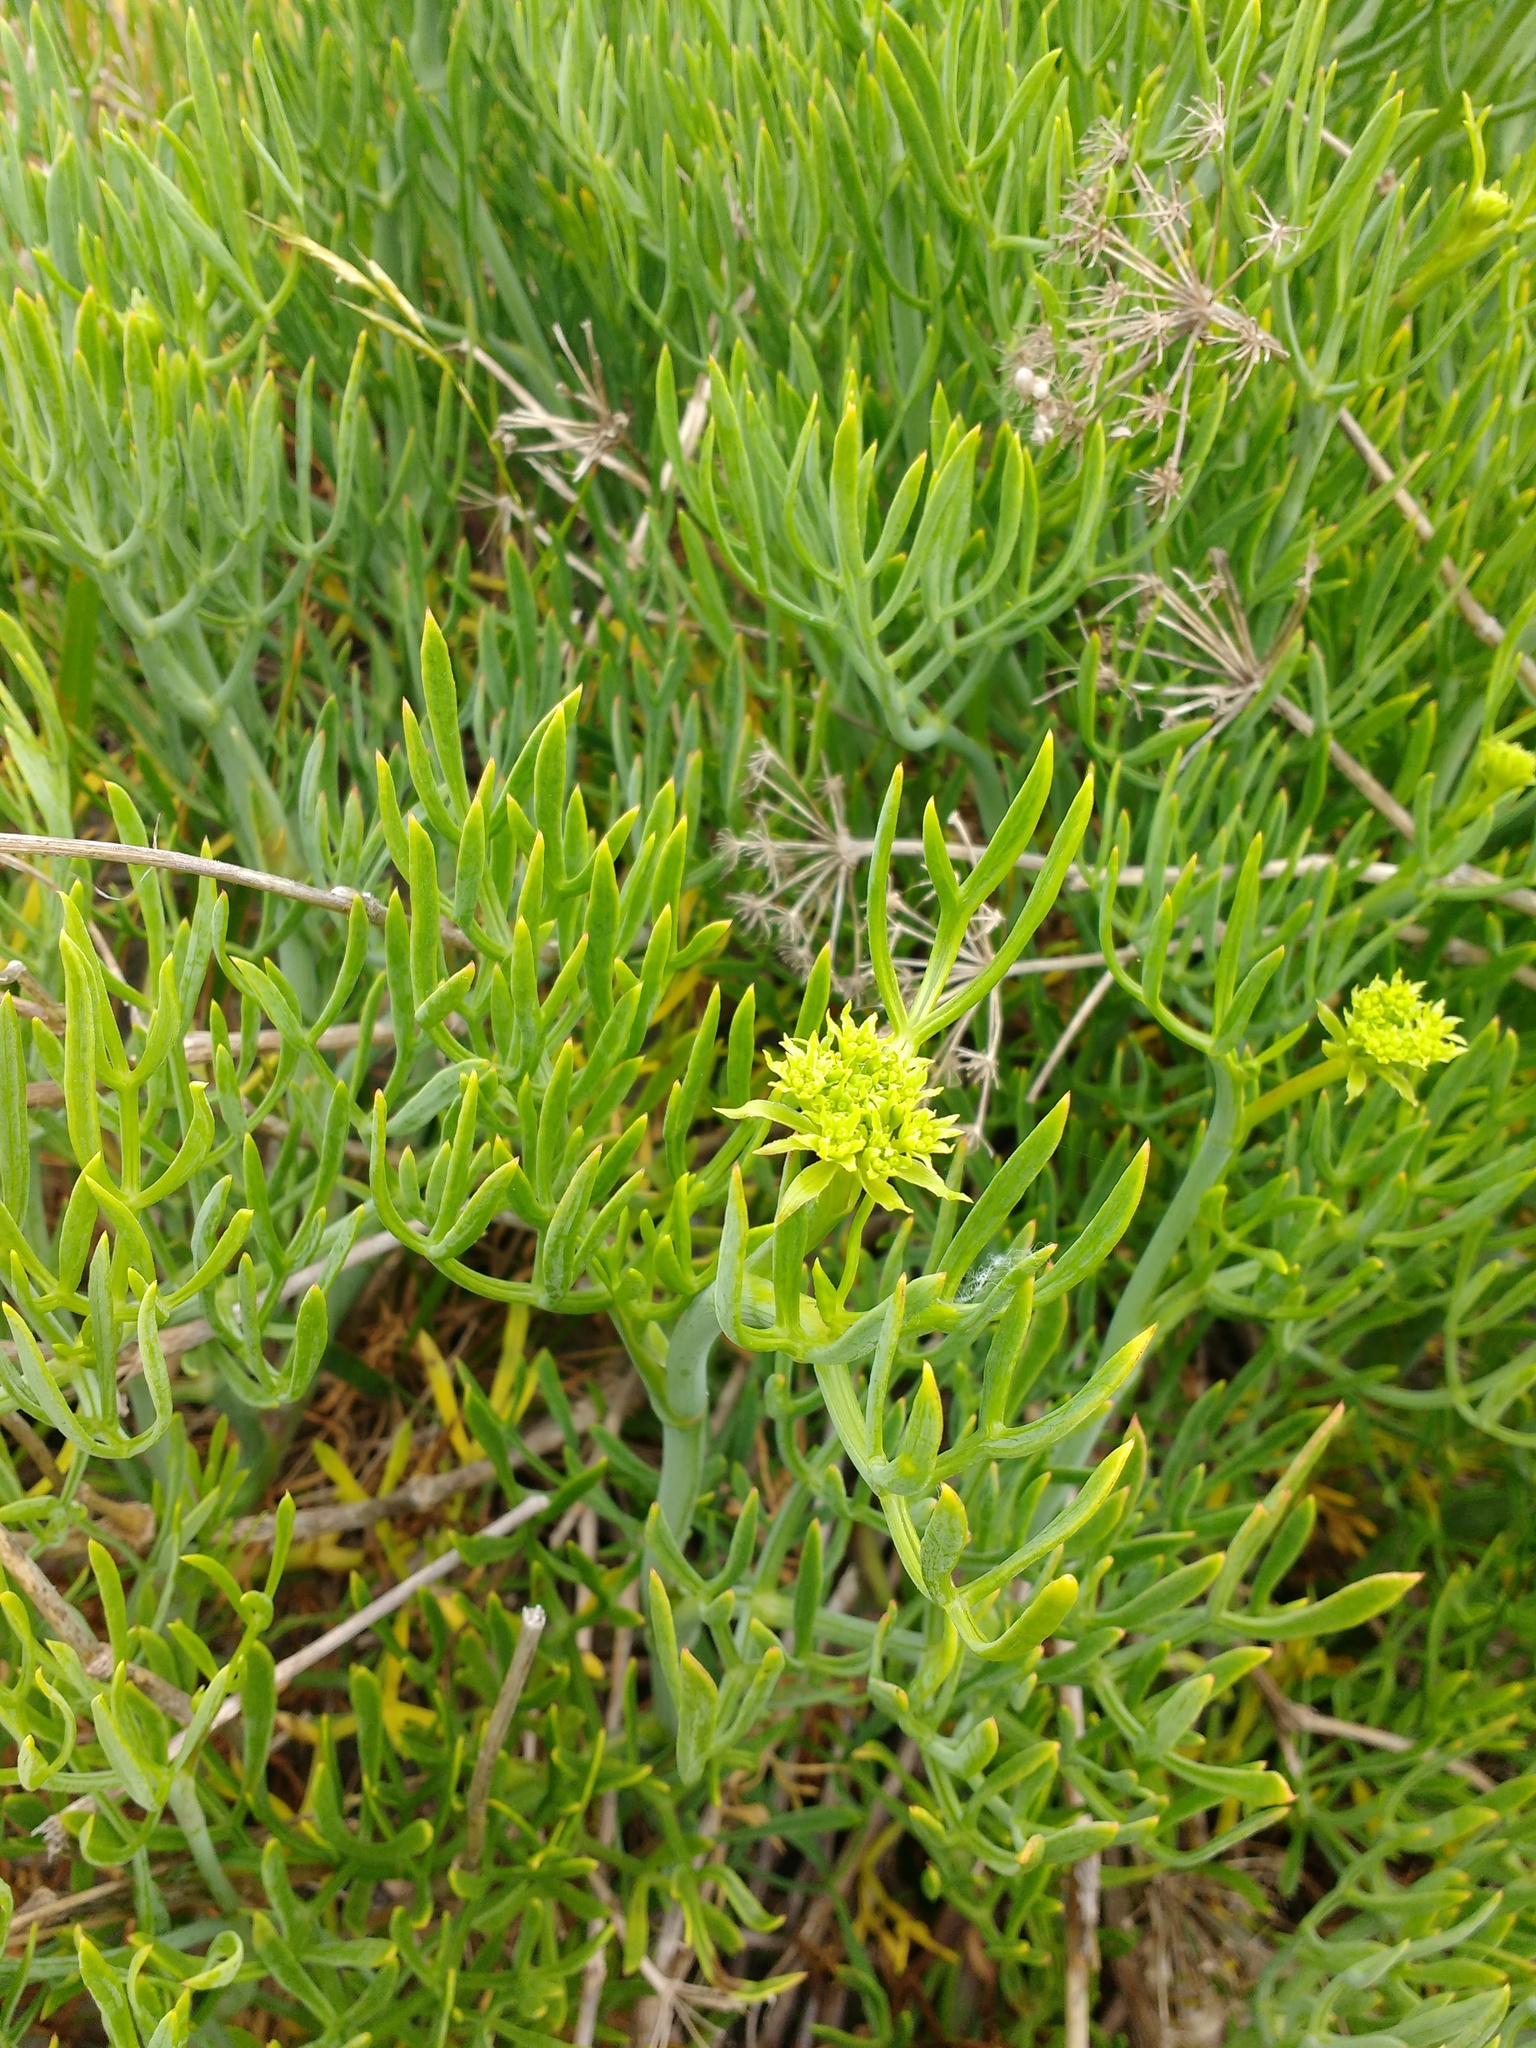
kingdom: Plantae
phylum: Tracheophyta
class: Magnoliopsida
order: Apiales
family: Apiaceae
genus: Crithmum
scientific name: Crithmum maritimum
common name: Rock samphire
